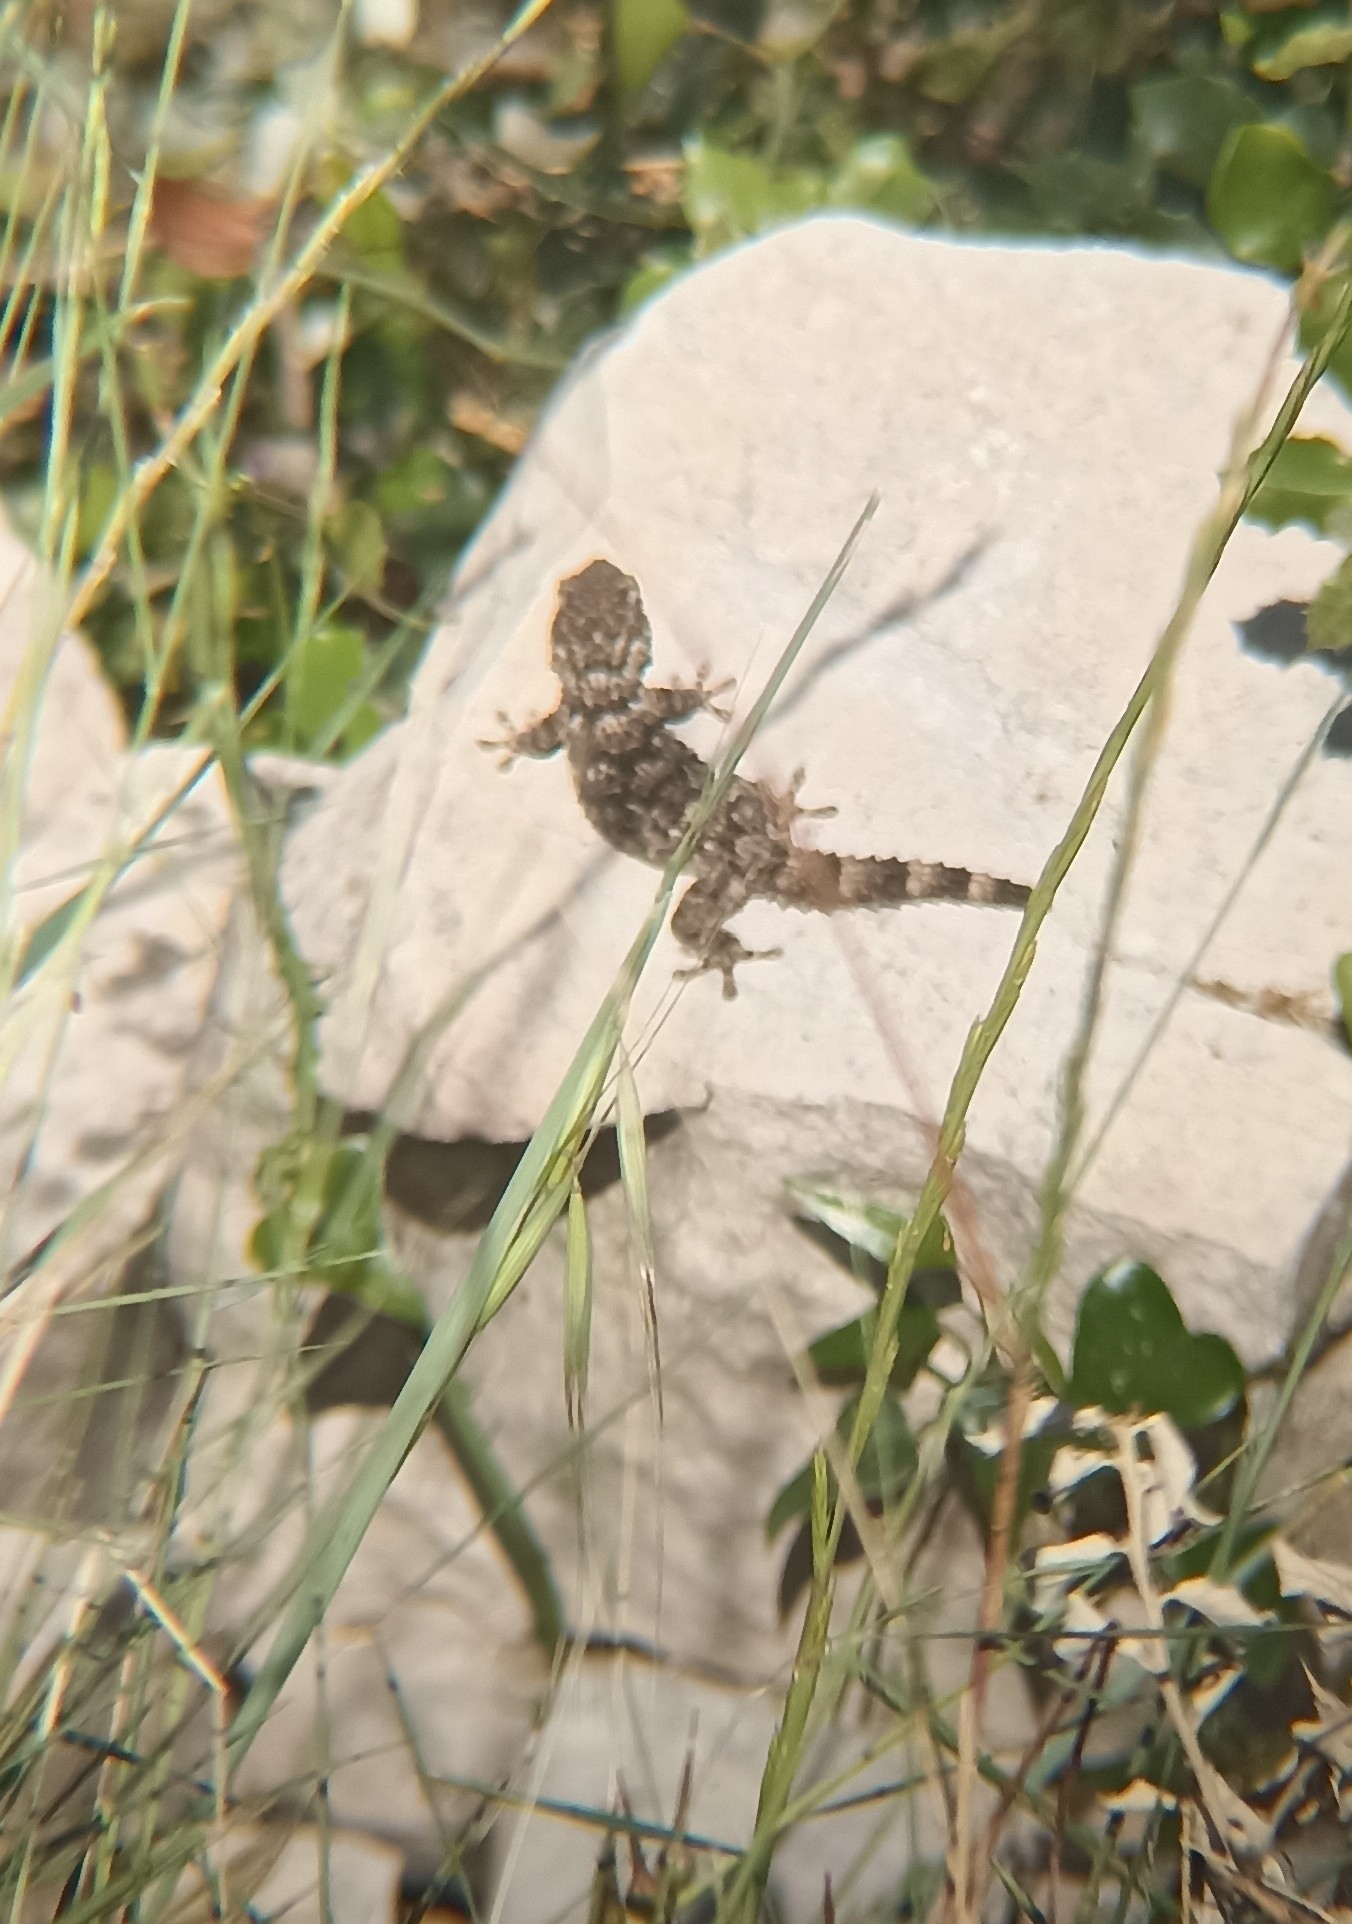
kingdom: Animalia
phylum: Chordata
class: Squamata
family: Phyllodactylidae
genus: Tarentola
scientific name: Tarentola mauritanica
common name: Moorish gecko
